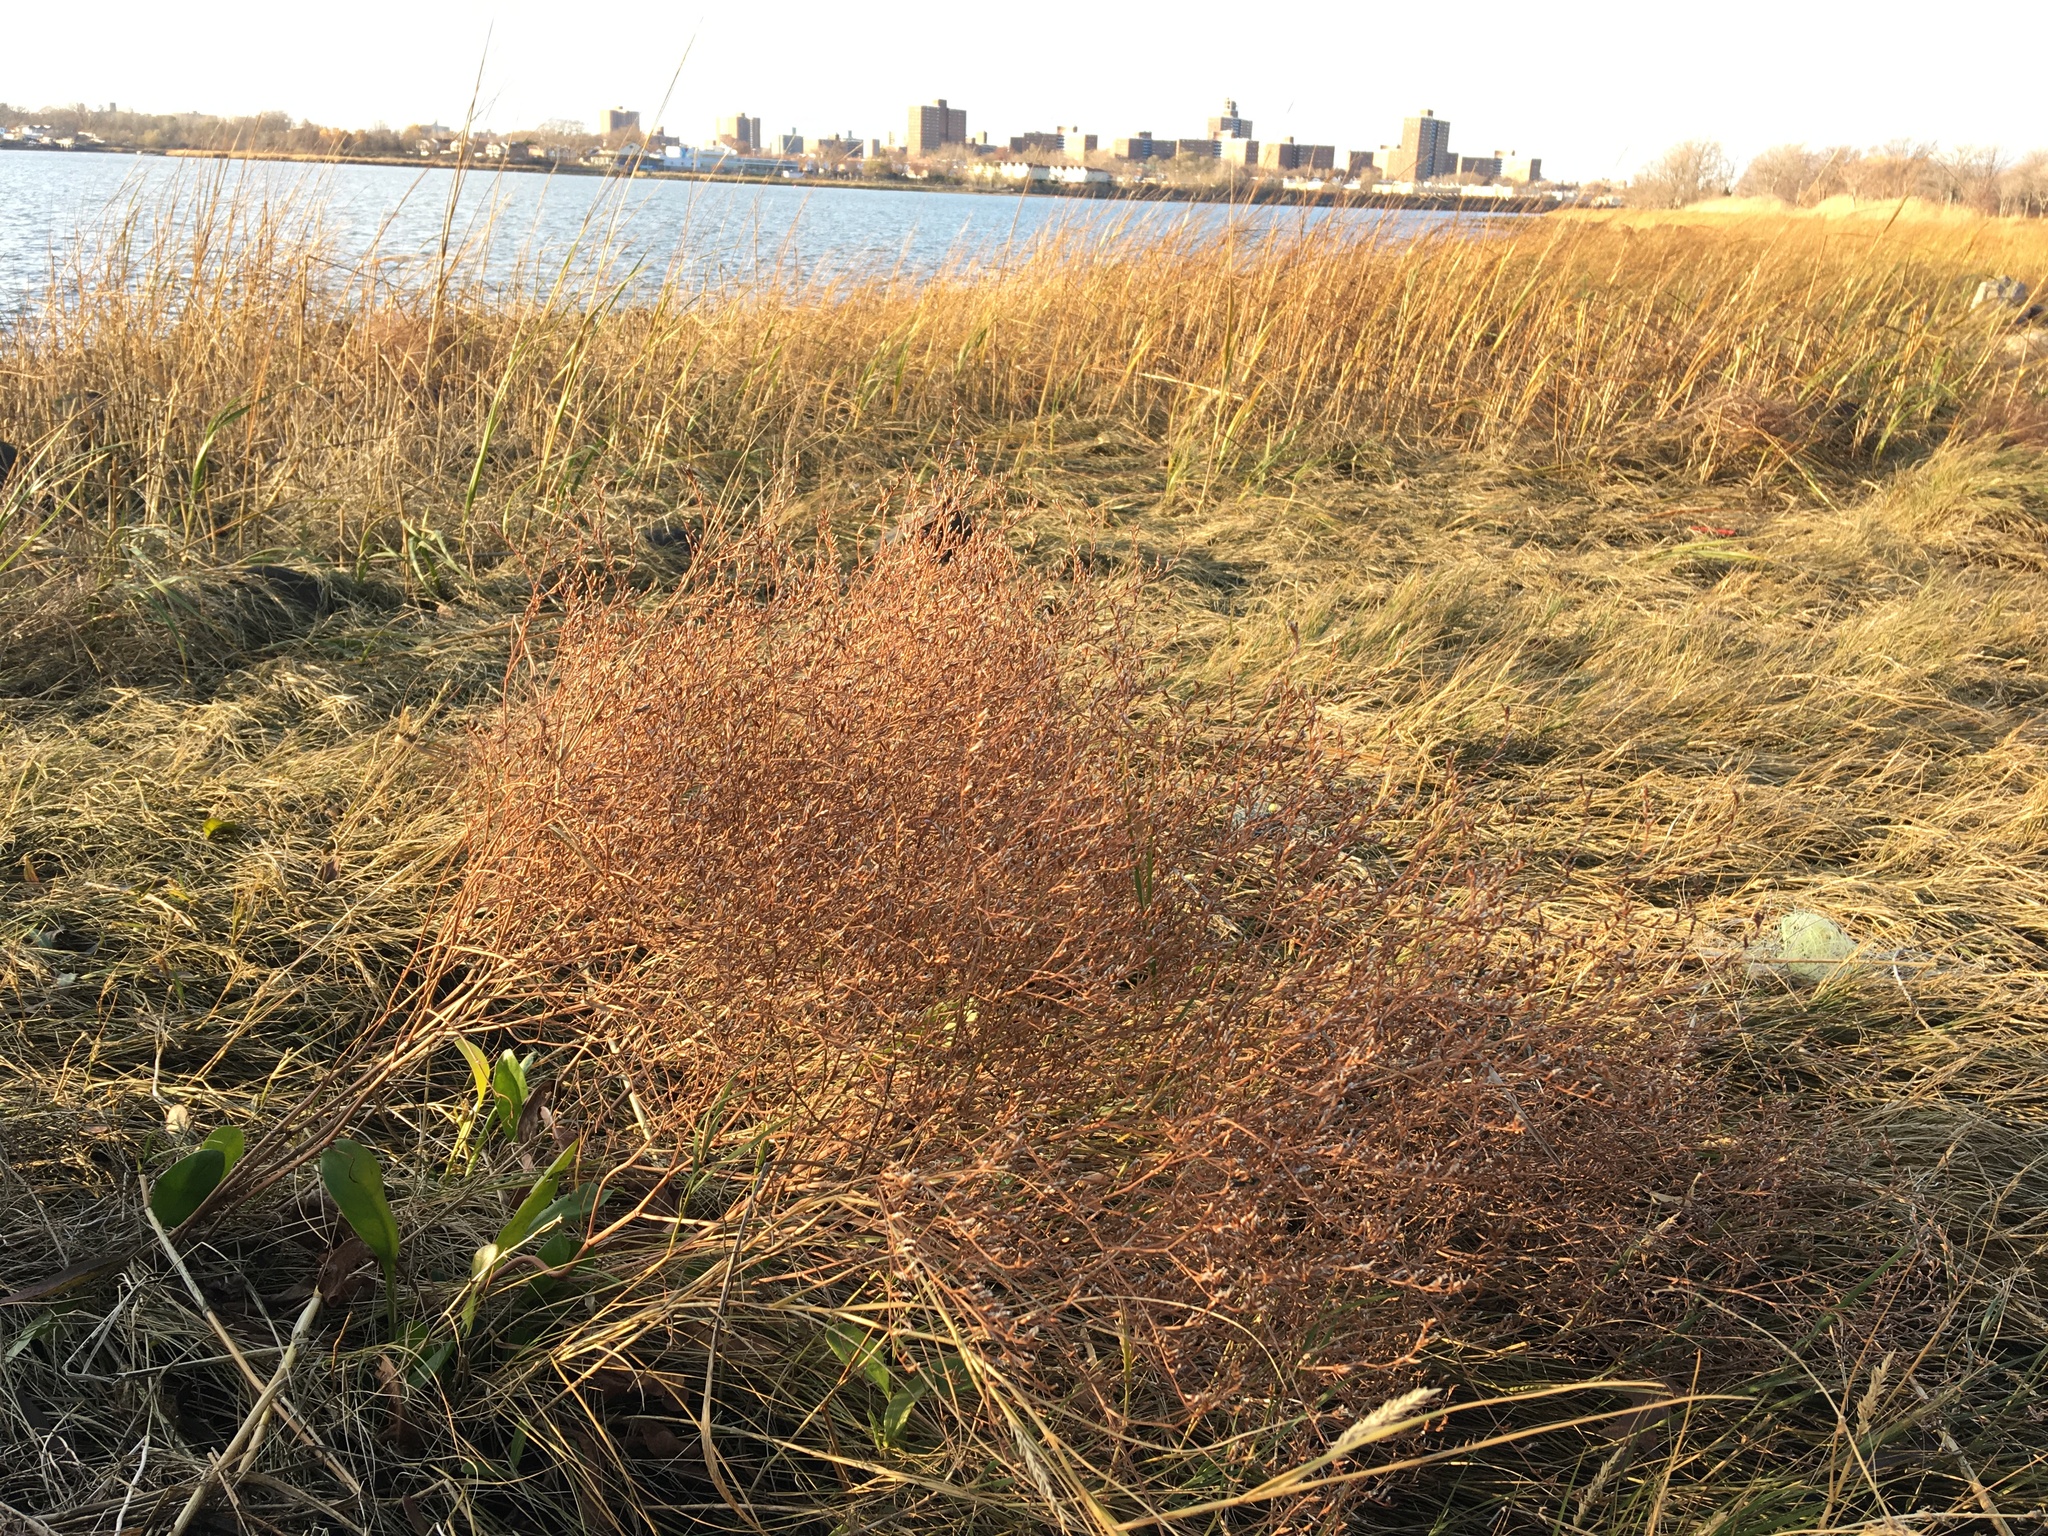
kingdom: Plantae
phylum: Tracheophyta
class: Magnoliopsida
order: Caryophyllales
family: Plumbaginaceae
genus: Limonium
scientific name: Limonium carolinianum
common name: Carolina sea lavender
